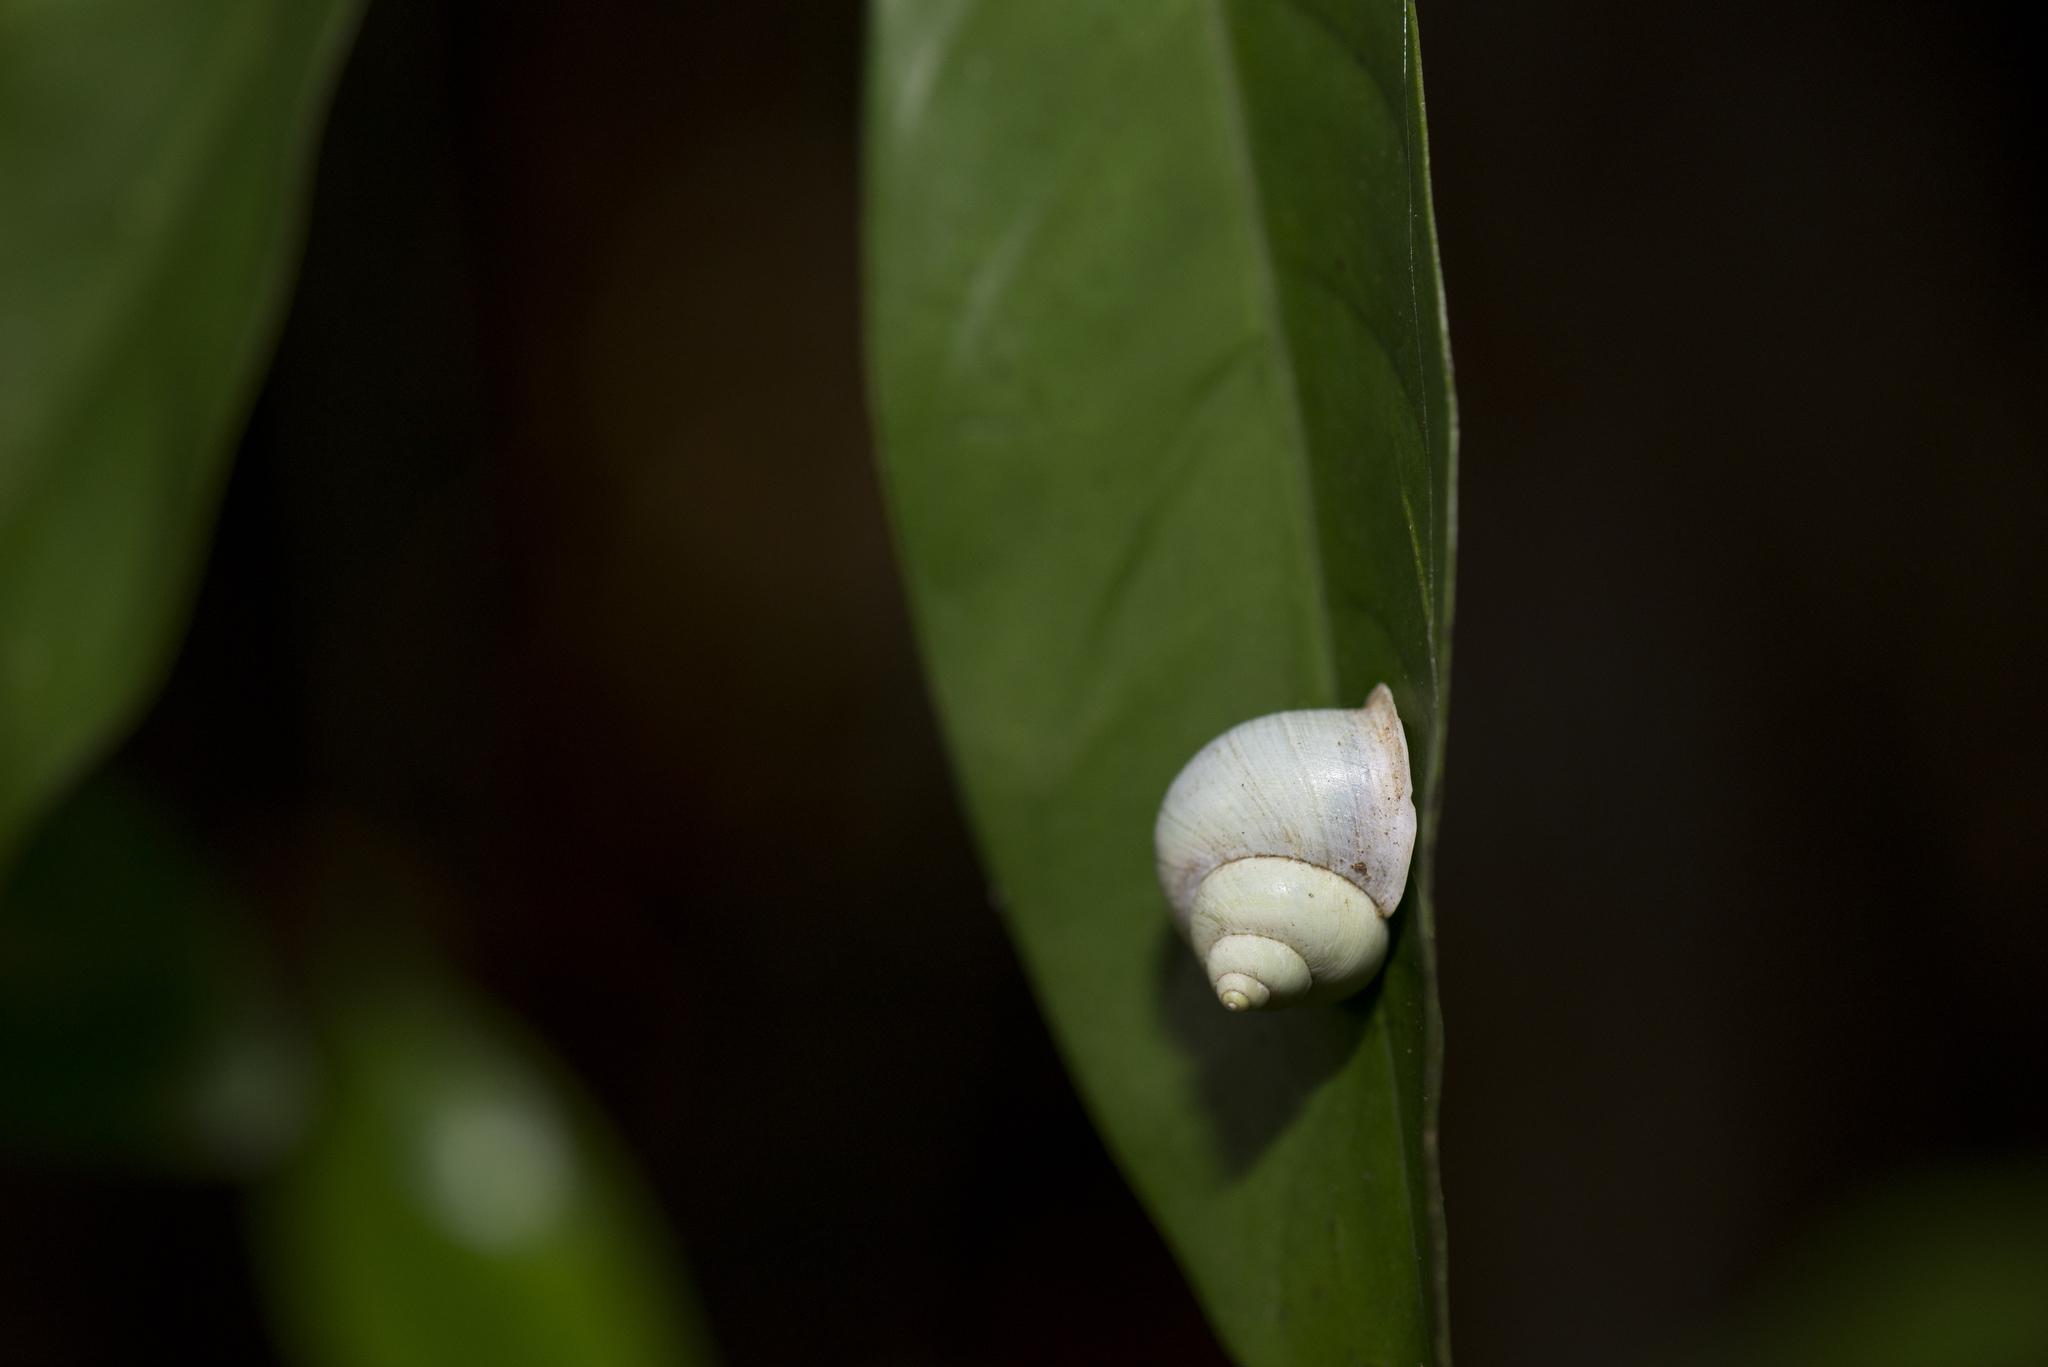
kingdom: Animalia
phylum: Mollusca
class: Gastropoda
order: Architaenioglossa
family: Cyclophoridae
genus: Leptopoma
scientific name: Leptopoma nitidum
